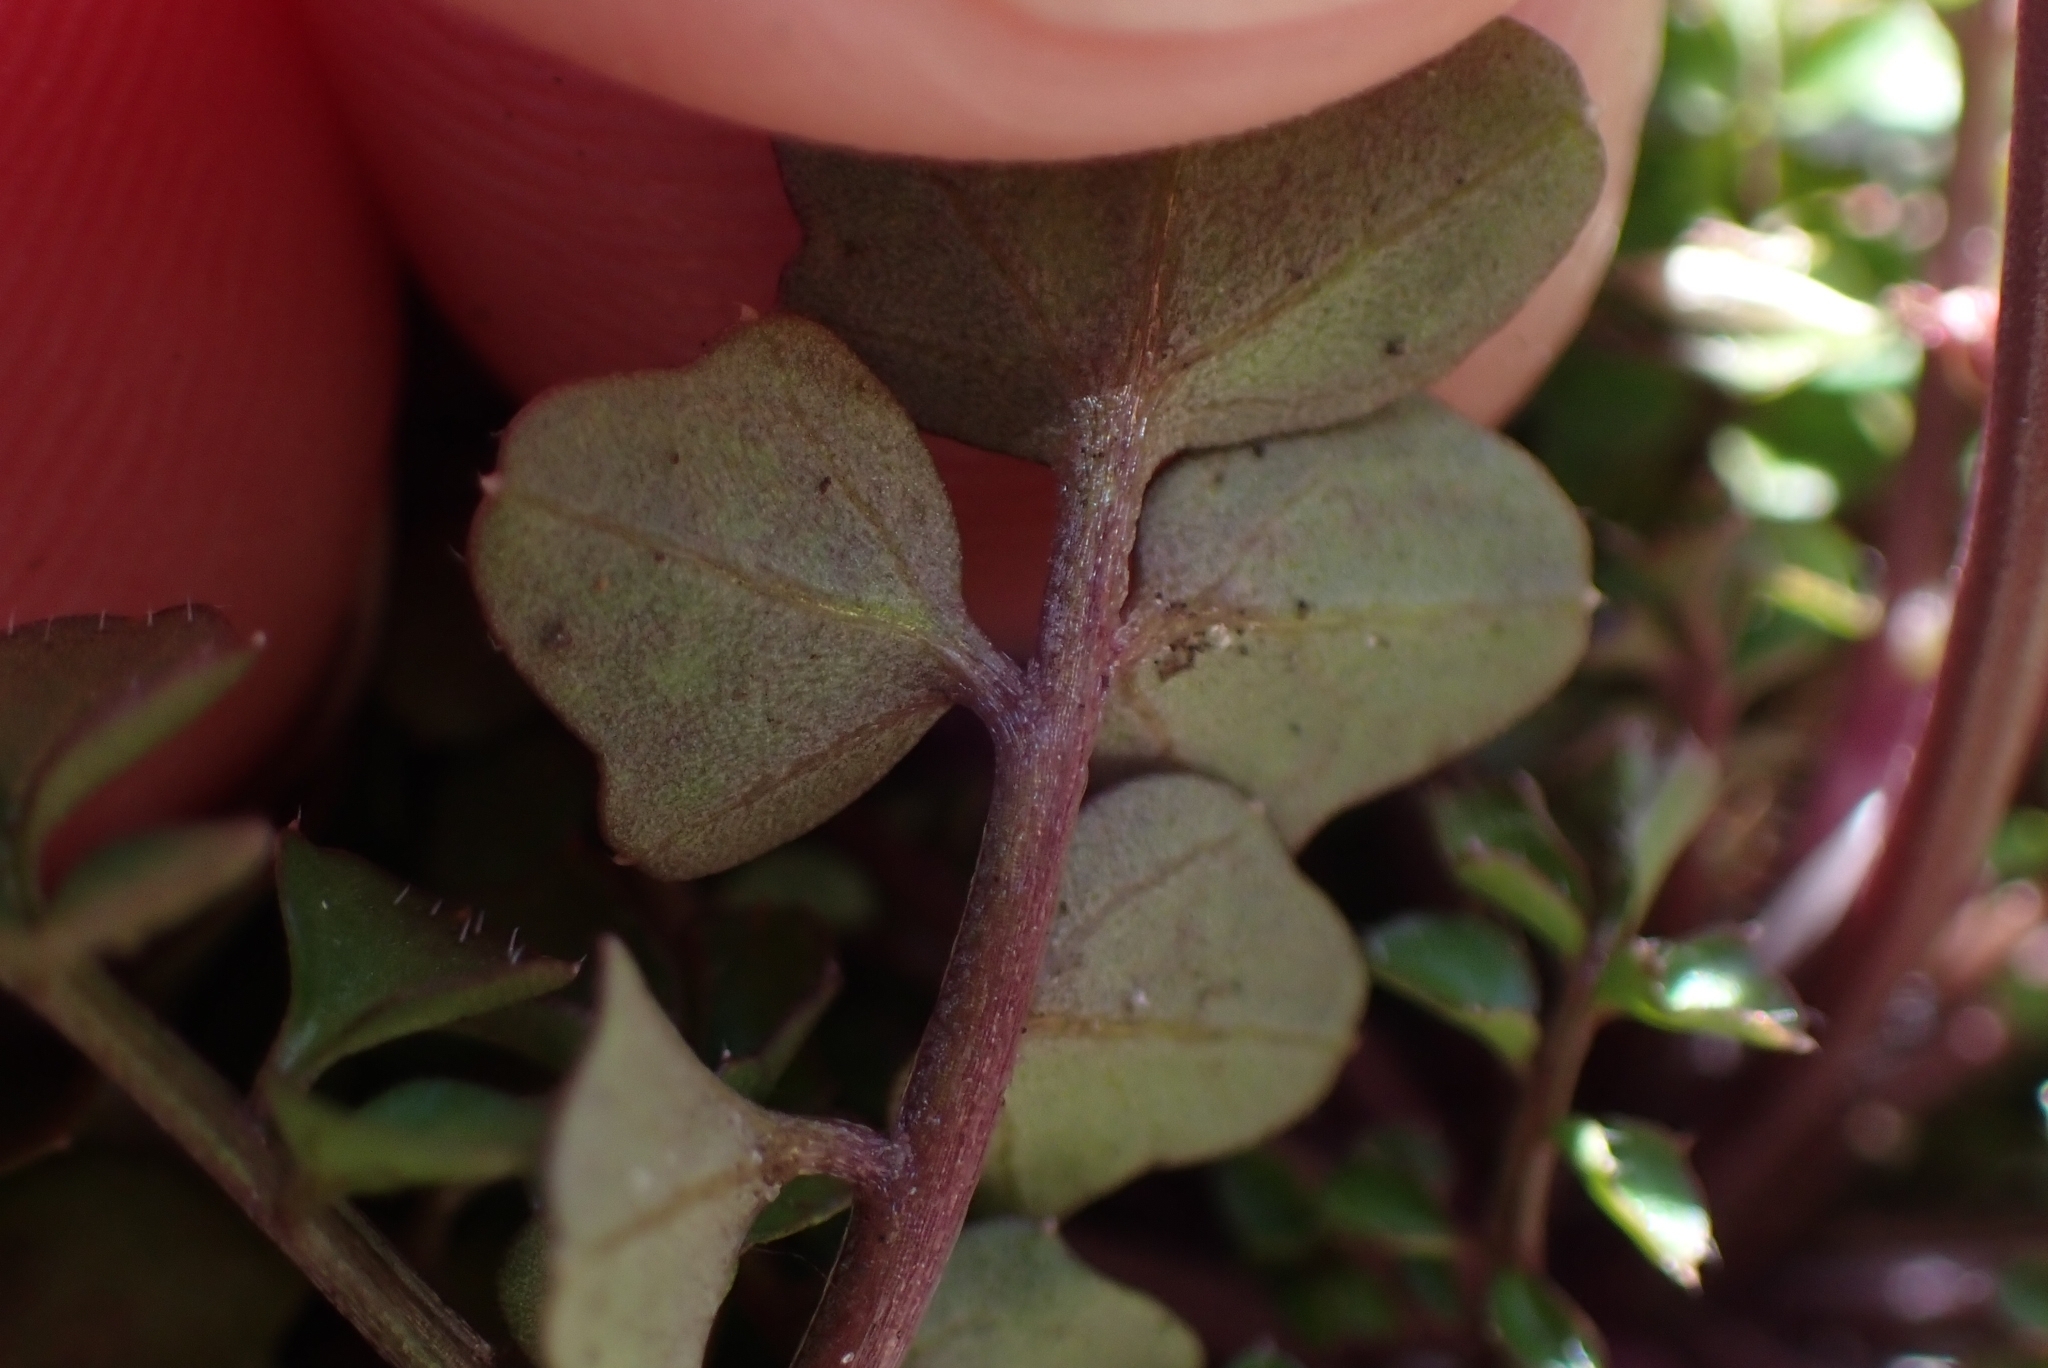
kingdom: Plantae
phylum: Tracheophyta
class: Magnoliopsida
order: Brassicales
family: Brassicaceae
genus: Cardamine
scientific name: Cardamine hirsuta
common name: Hairy bittercress
